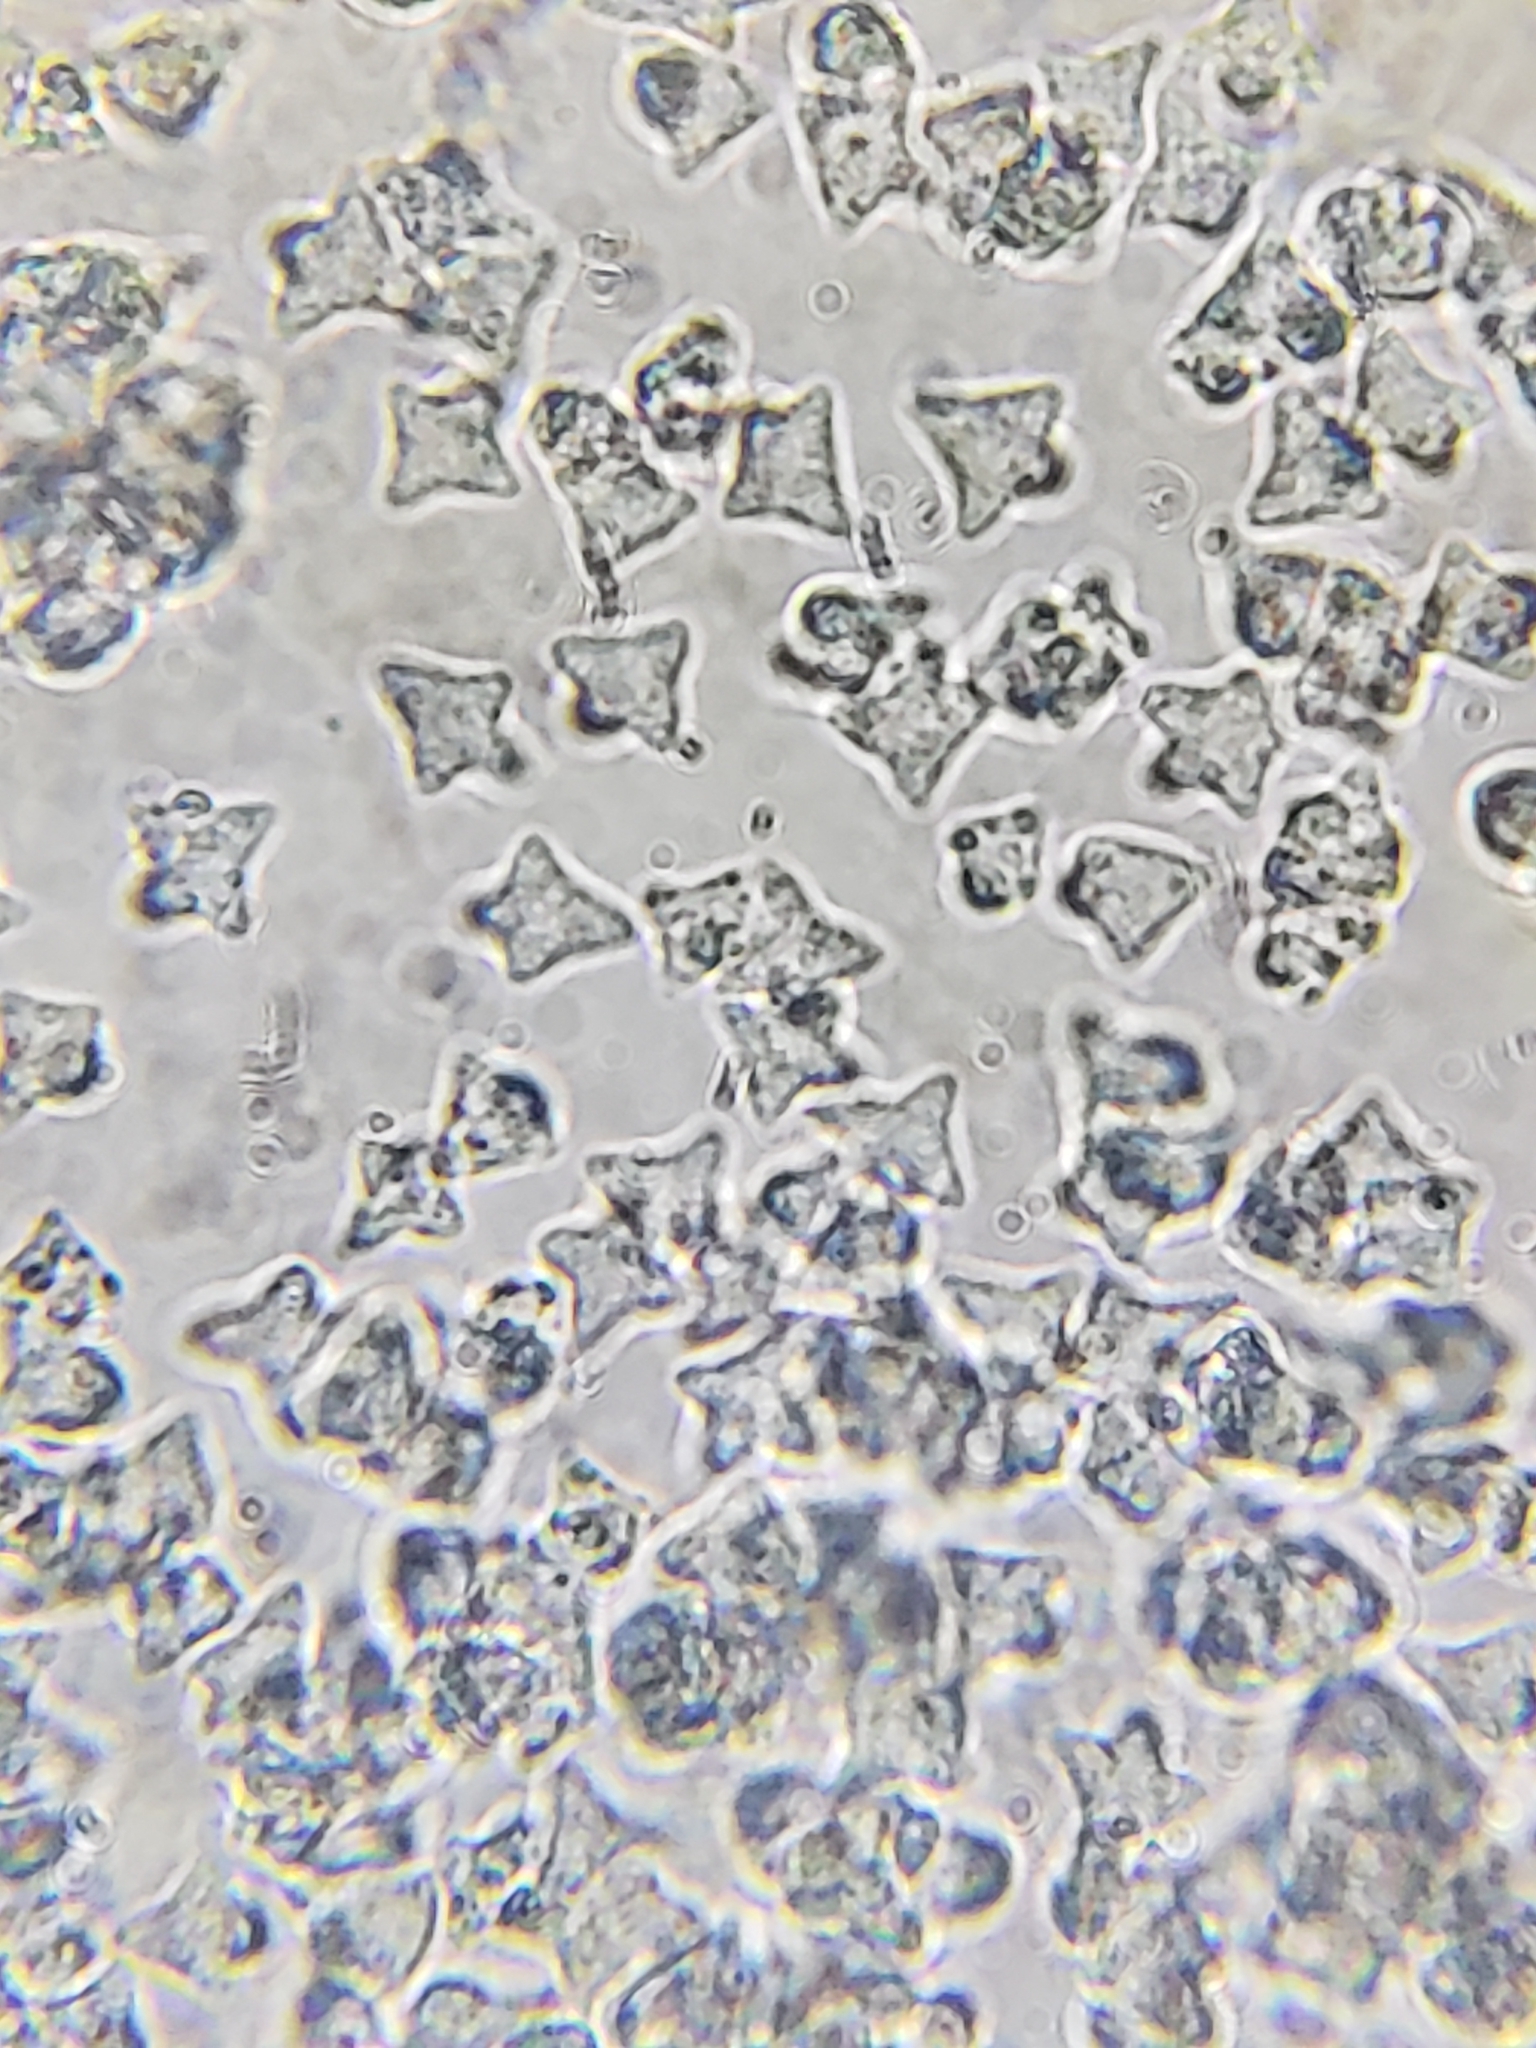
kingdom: Fungi
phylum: Basidiomycota
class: Agaricomycetes
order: Agaricales
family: Marasmiaceae
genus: Tetrapyrgos
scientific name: Tetrapyrgos nigripes
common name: Black-stalked marasmius
